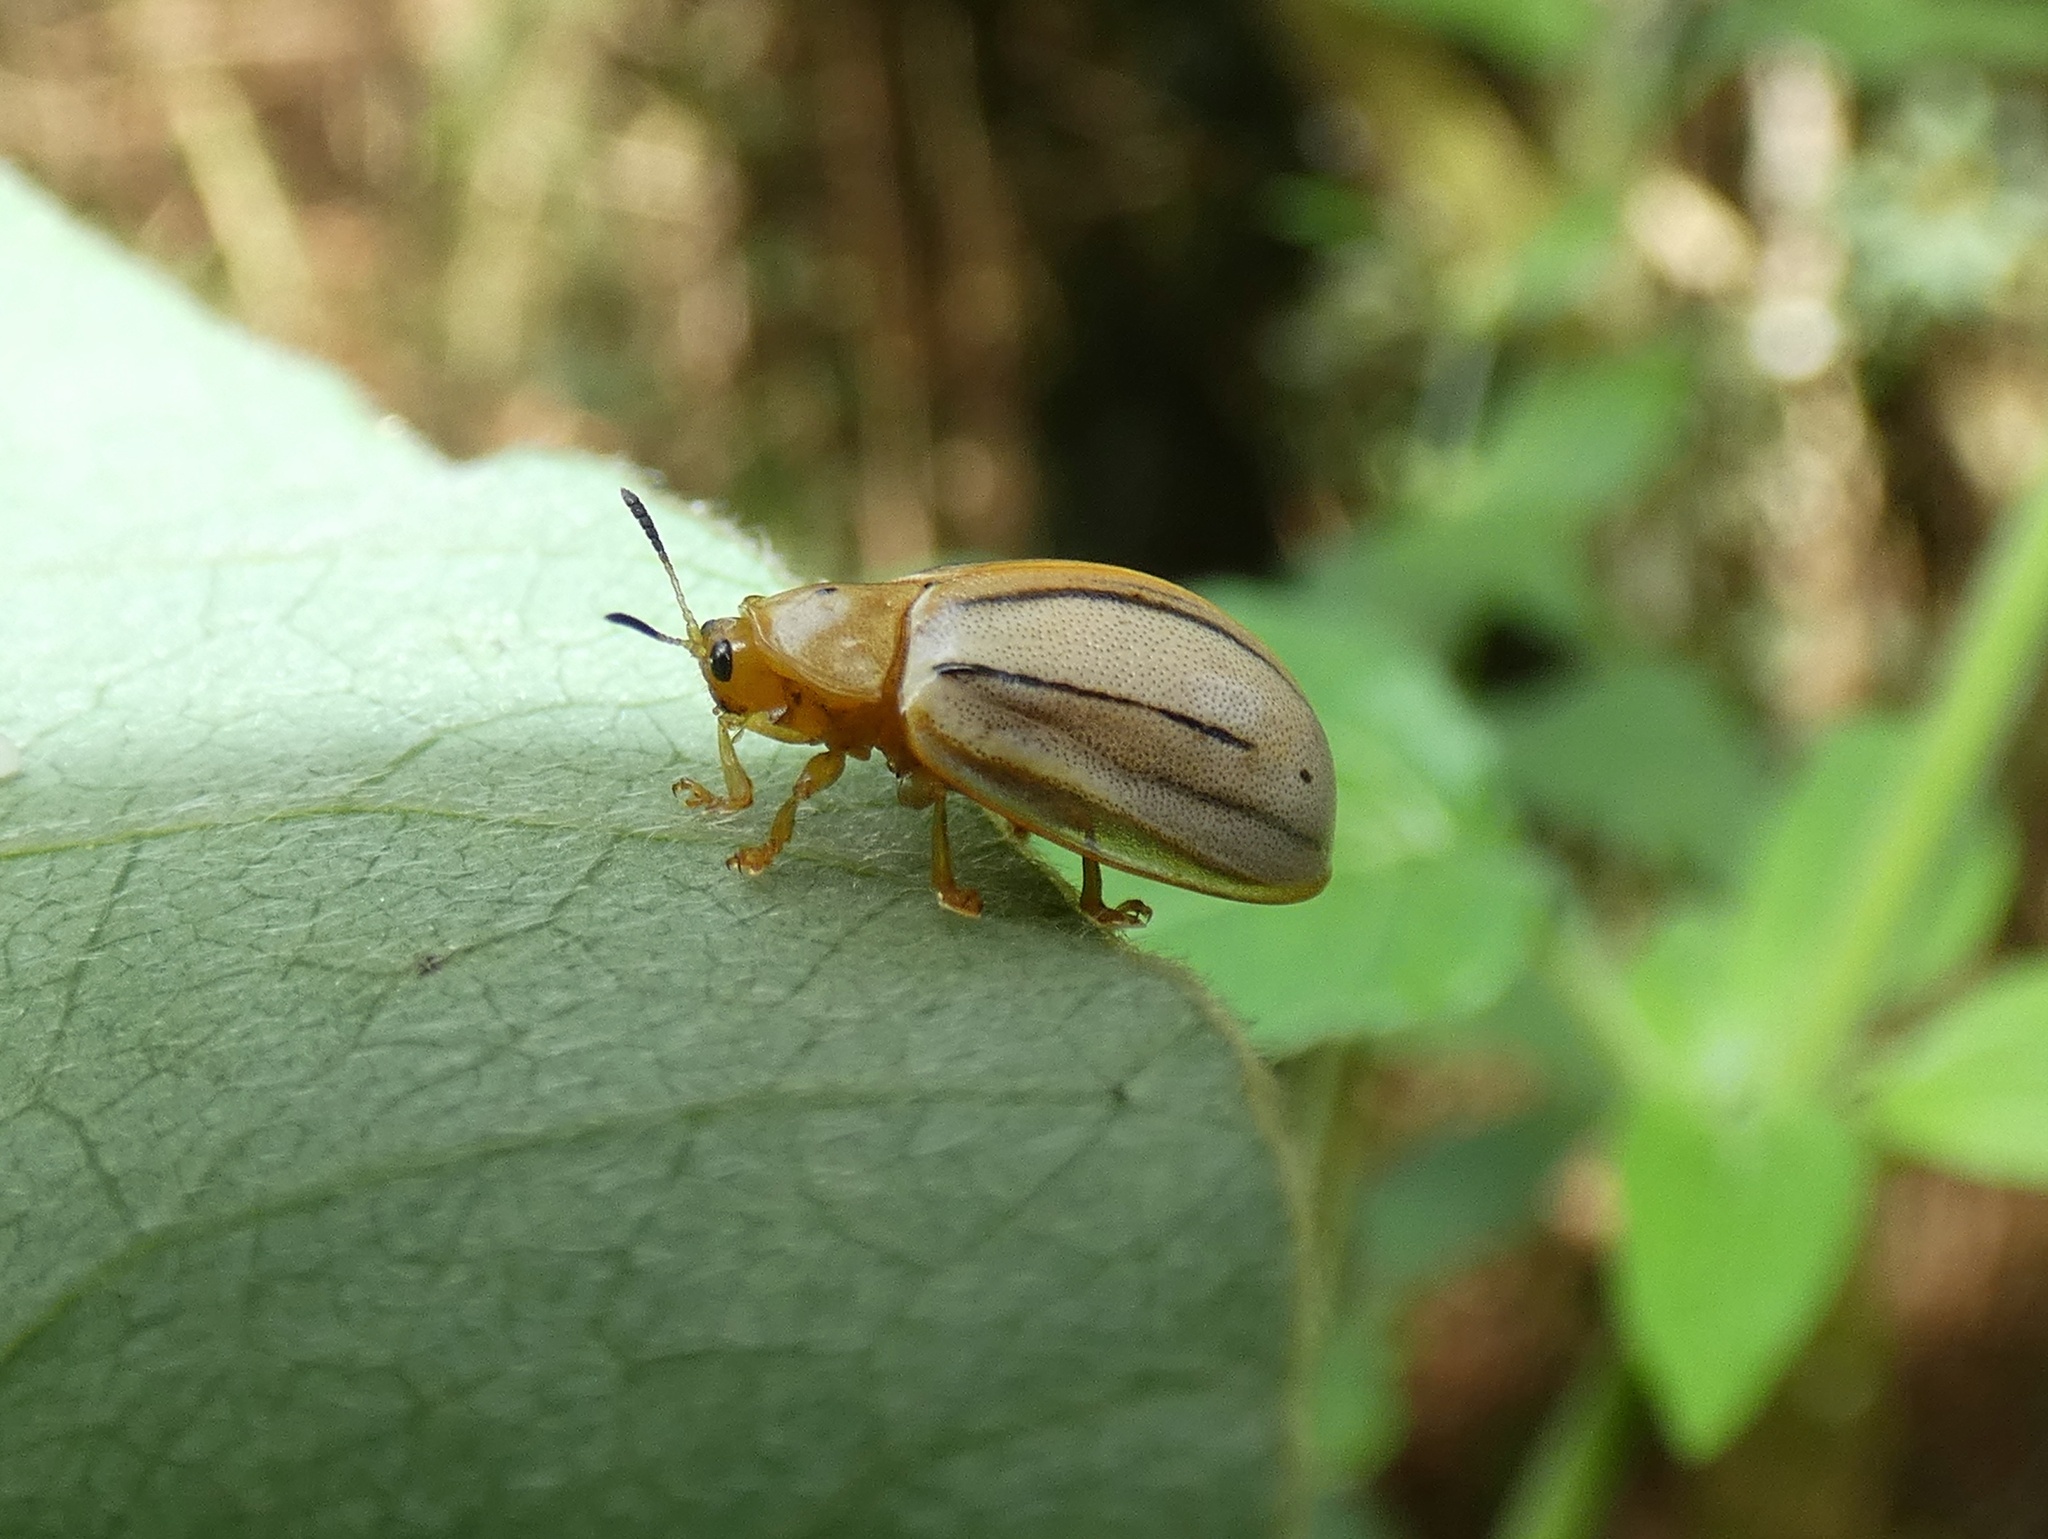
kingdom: Animalia
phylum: Arthropoda
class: Insecta
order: Coleoptera
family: Chrysomelidae
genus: Hilarocassis
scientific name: Hilarocassis exclamationis
